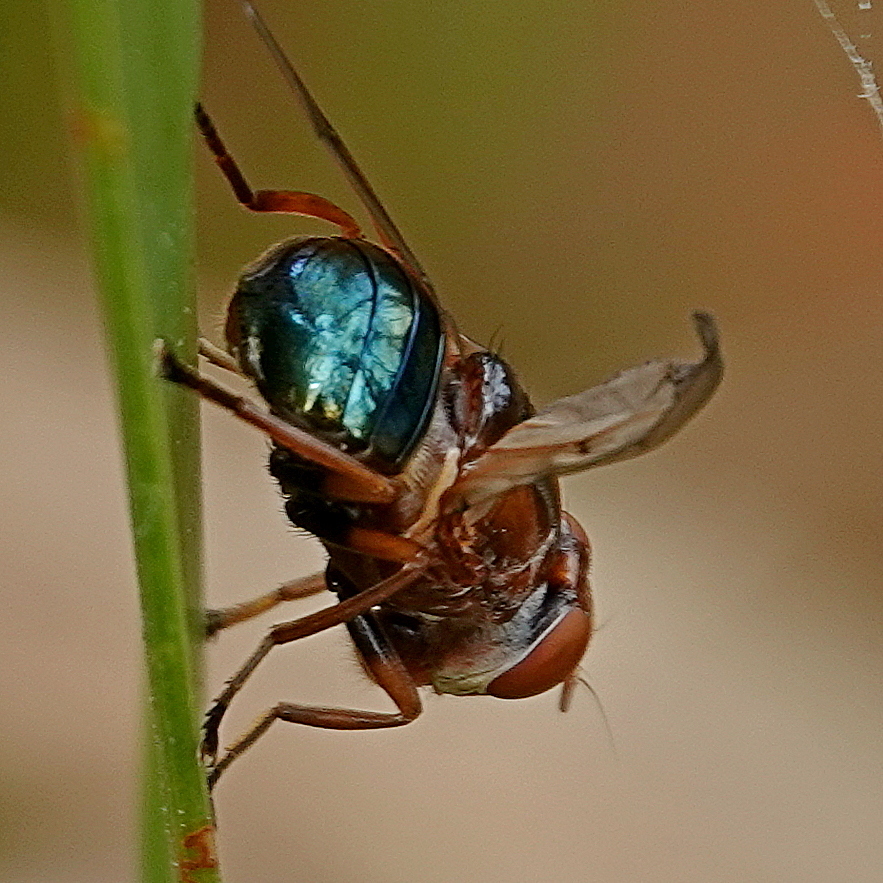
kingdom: Animalia
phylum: Arthropoda
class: Insecta
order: Diptera
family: Platystomatidae
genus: Lamprogaster
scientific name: Lamprogaster flavipennis
